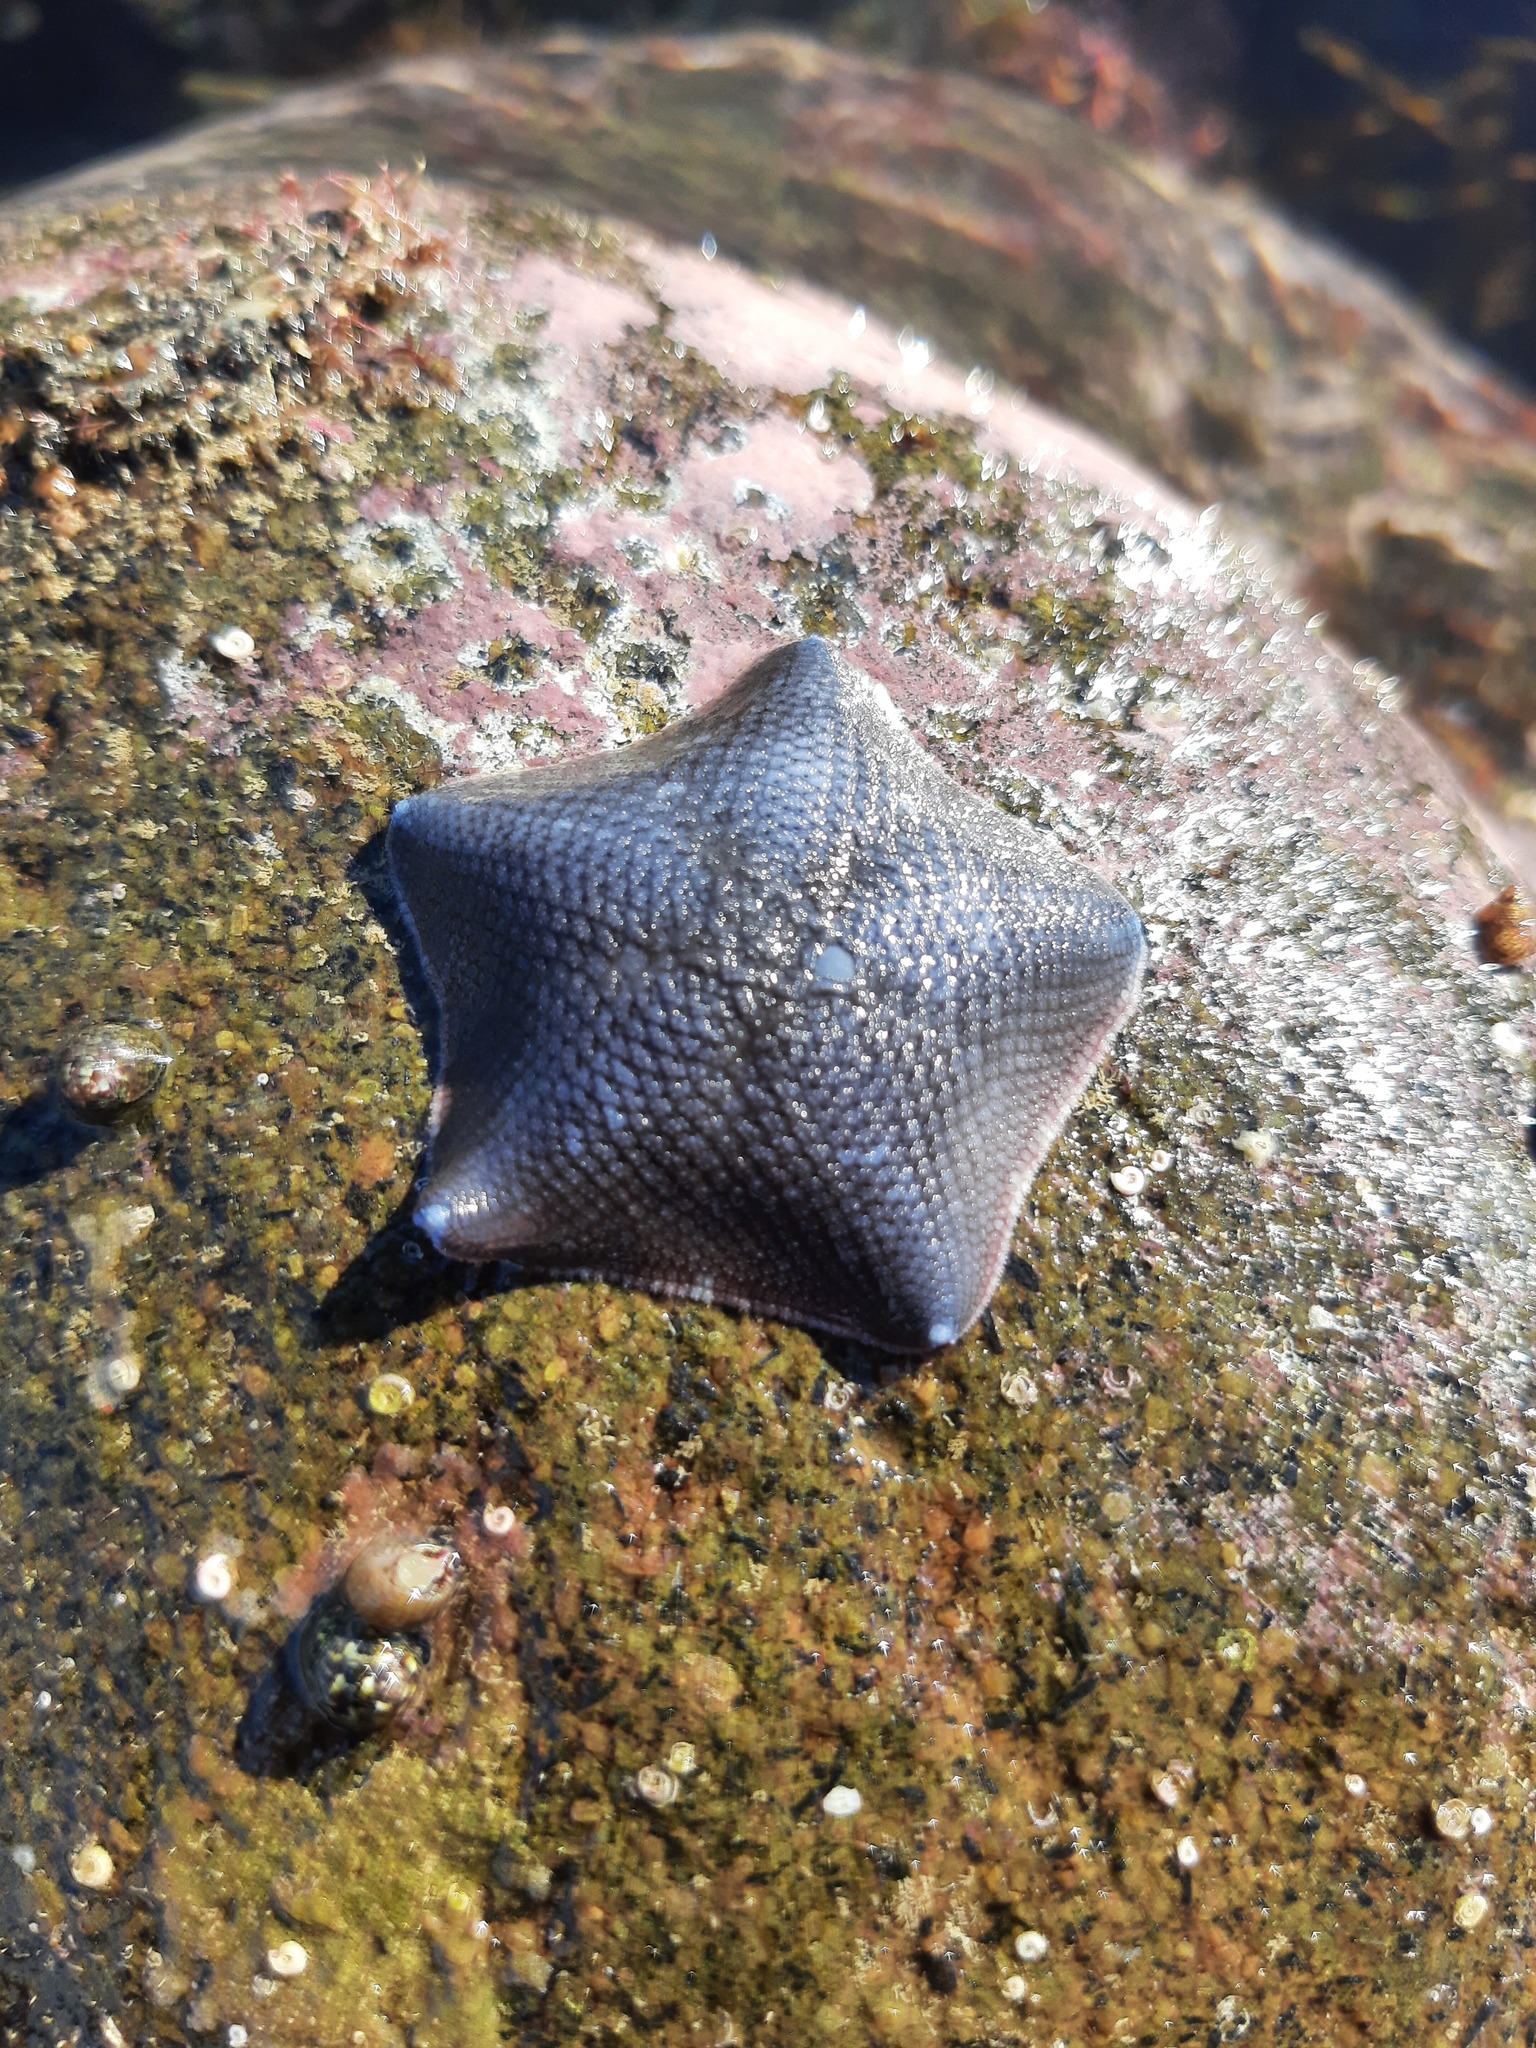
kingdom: Animalia
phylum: Echinodermata
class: Asteroidea
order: Valvatida
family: Asterinidae
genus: Patiriella
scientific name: Patiriella regularis
